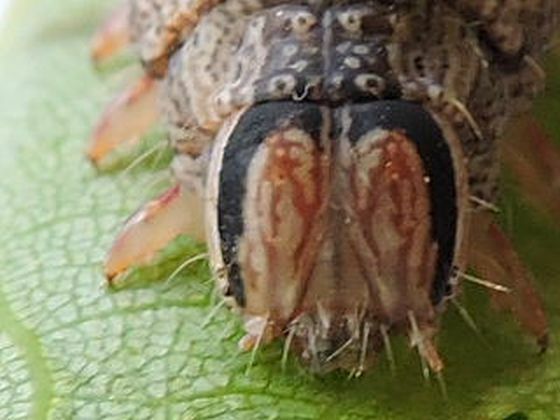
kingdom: Animalia
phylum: Arthropoda
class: Insecta
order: Lepidoptera
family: Erebidae
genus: Catocala
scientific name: Catocala epione
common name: Epione underwing
